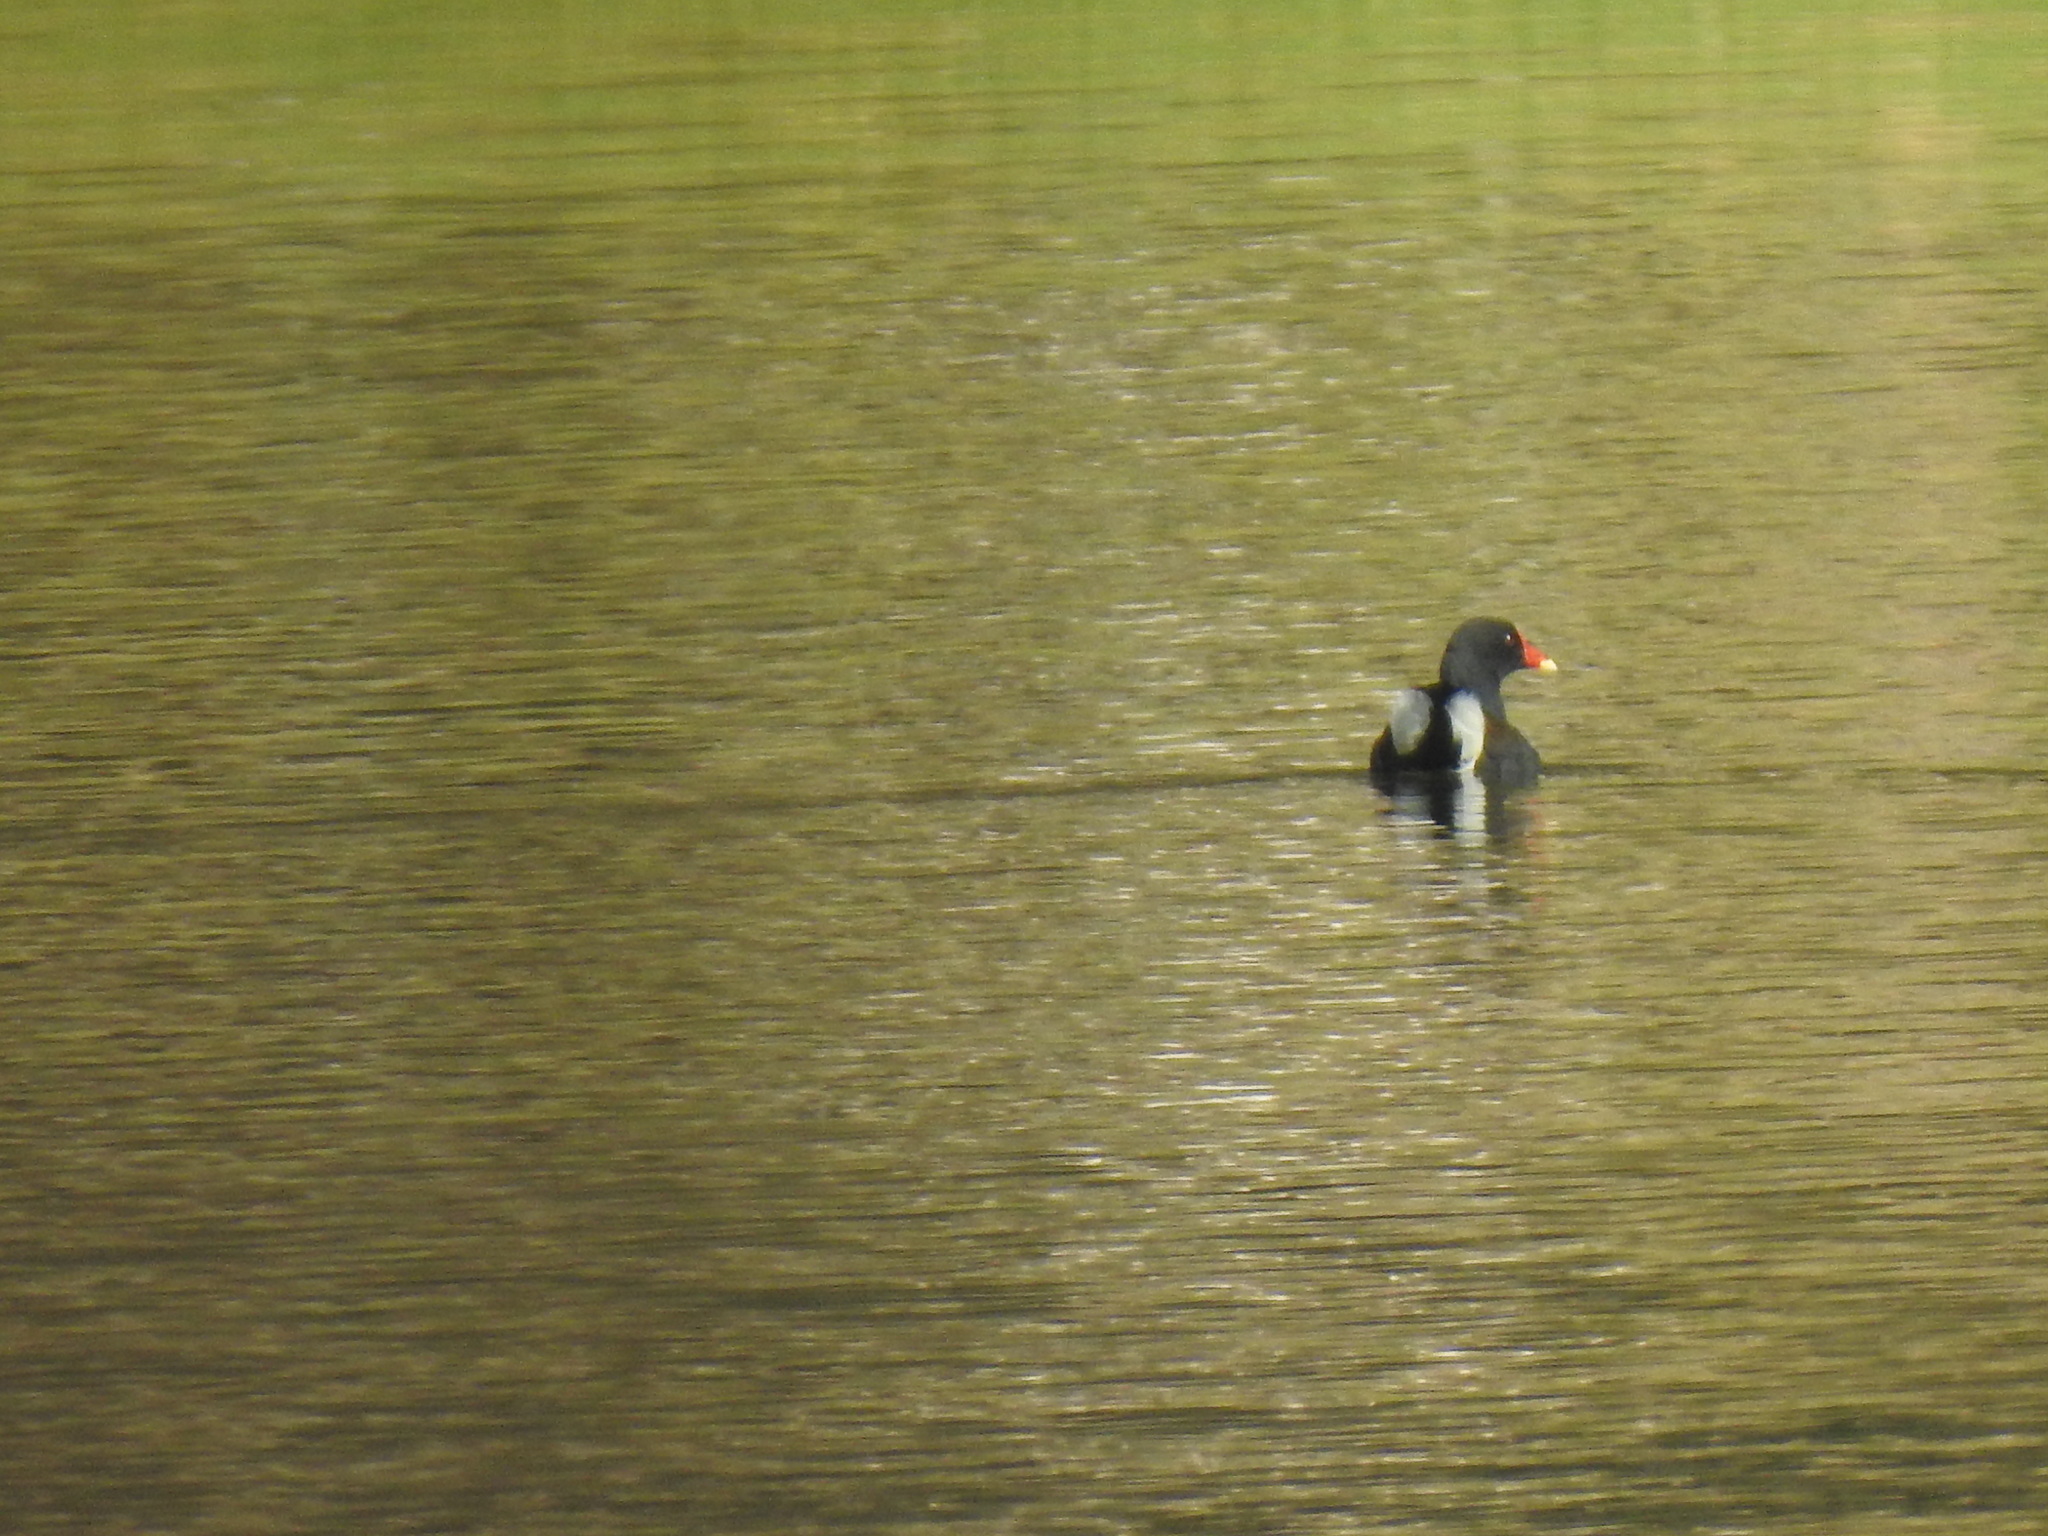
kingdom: Animalia
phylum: Chordata
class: Aves
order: Gruiformes
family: Rallidae
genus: Gallinula
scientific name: Gallinula chloropus
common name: Common moorhen
